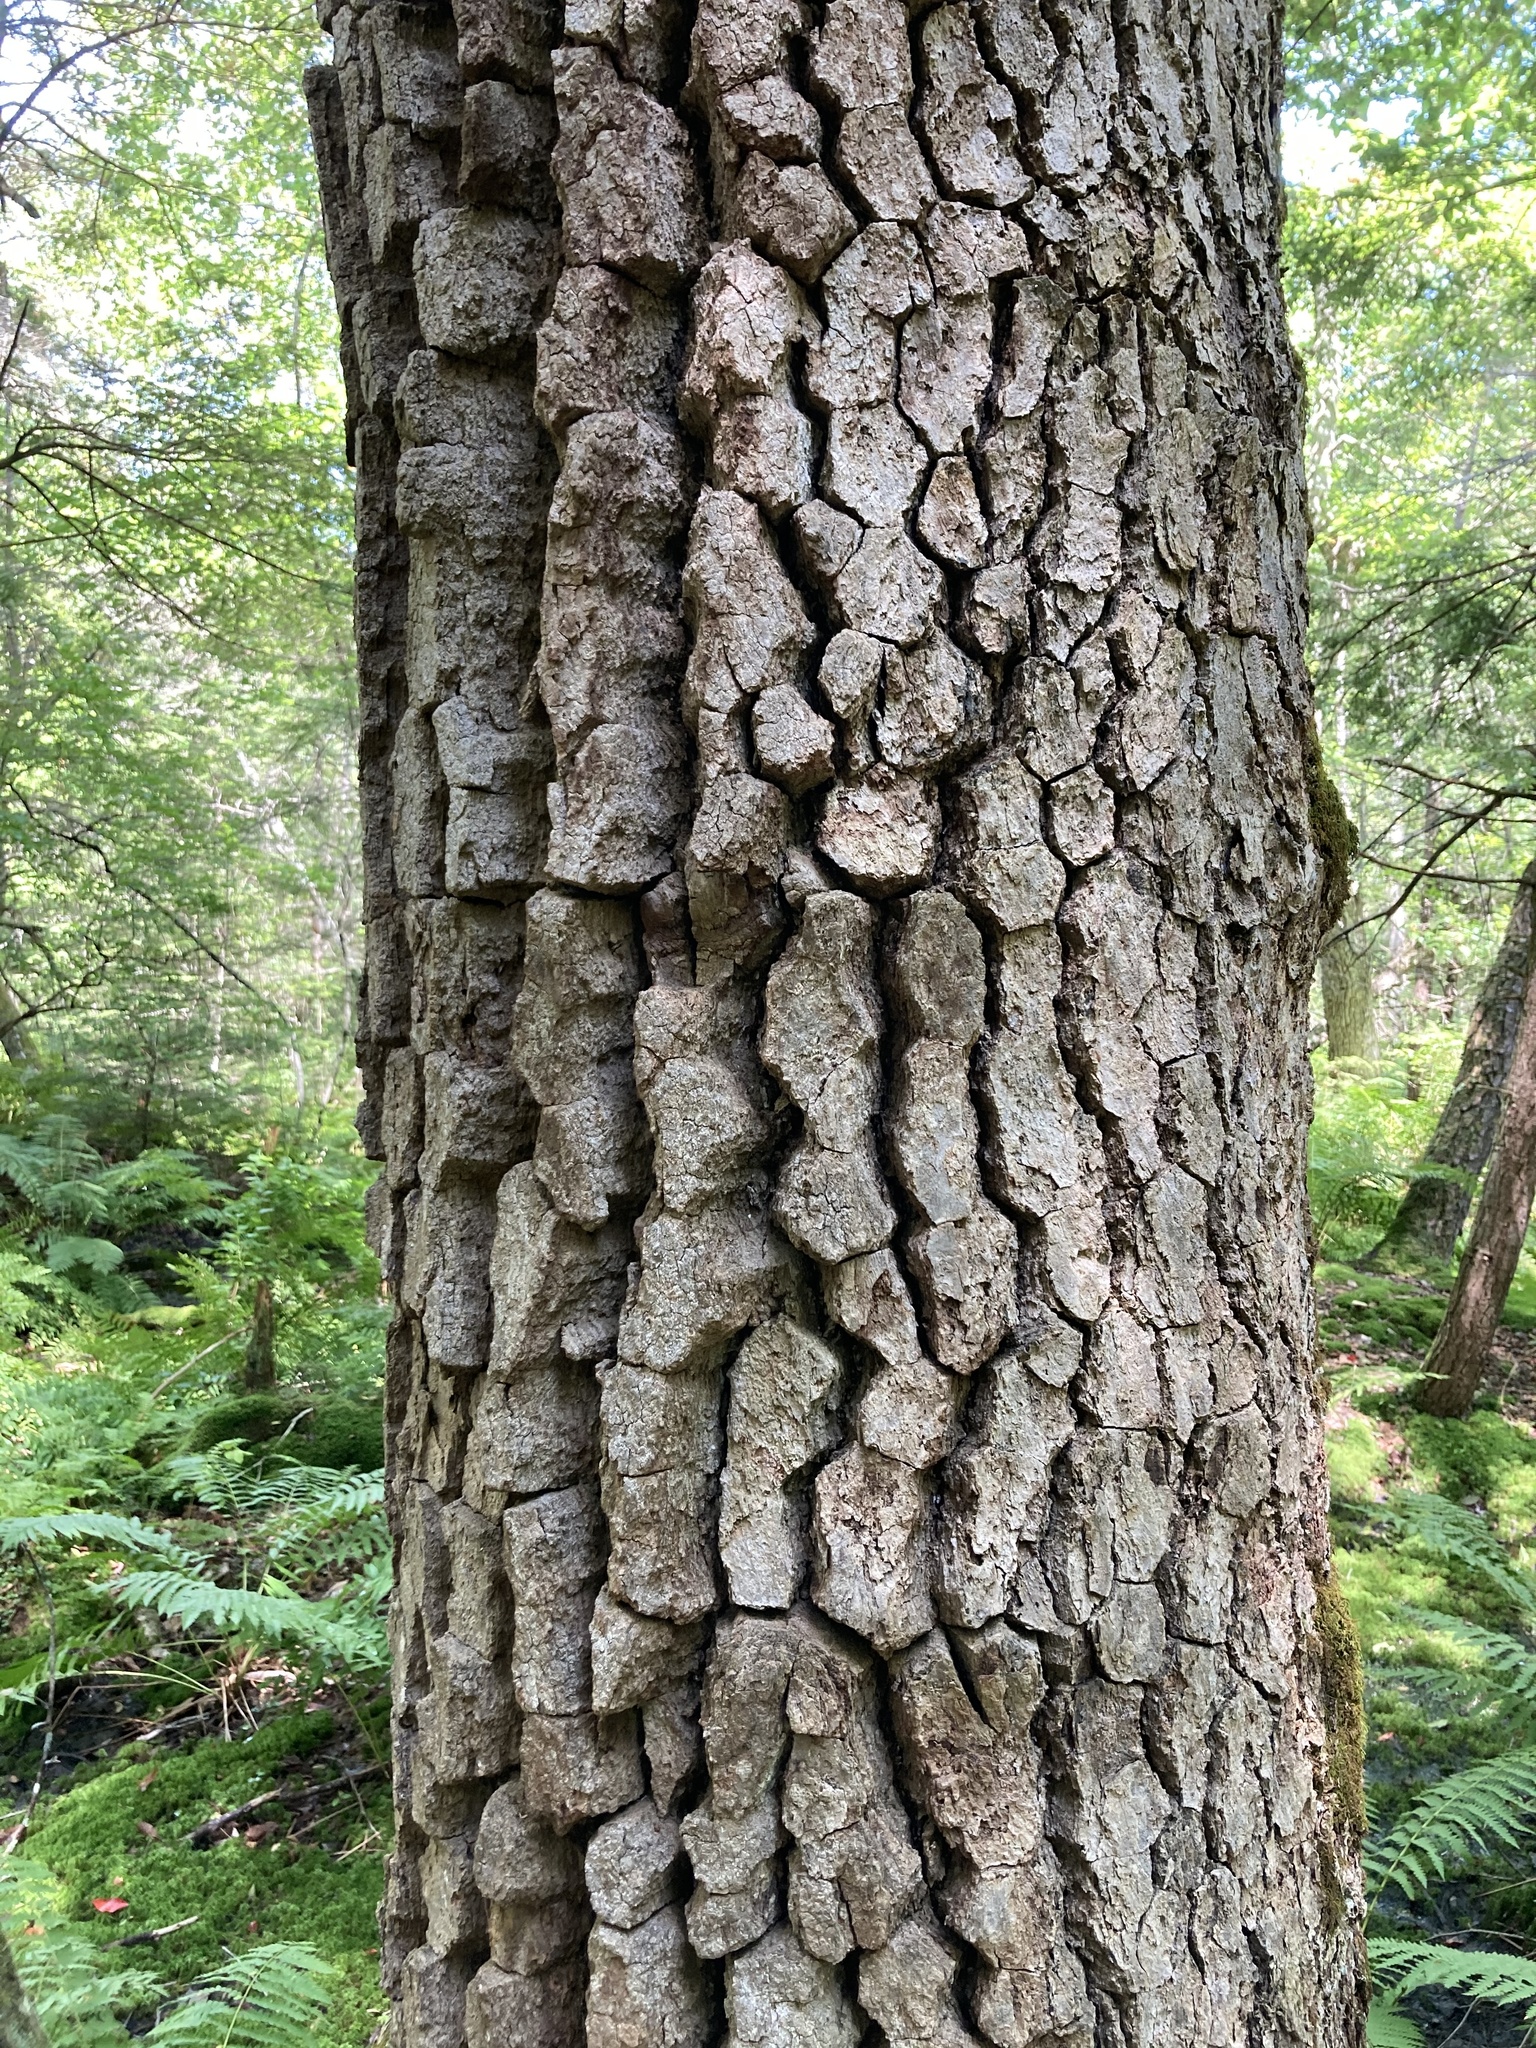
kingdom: Plantae
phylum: Tracheophyta
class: Magnoliopsida
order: Cornales
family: Nyssaceae
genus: Nyssa
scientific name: Nyssa sylvatica
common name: Black tupelo
